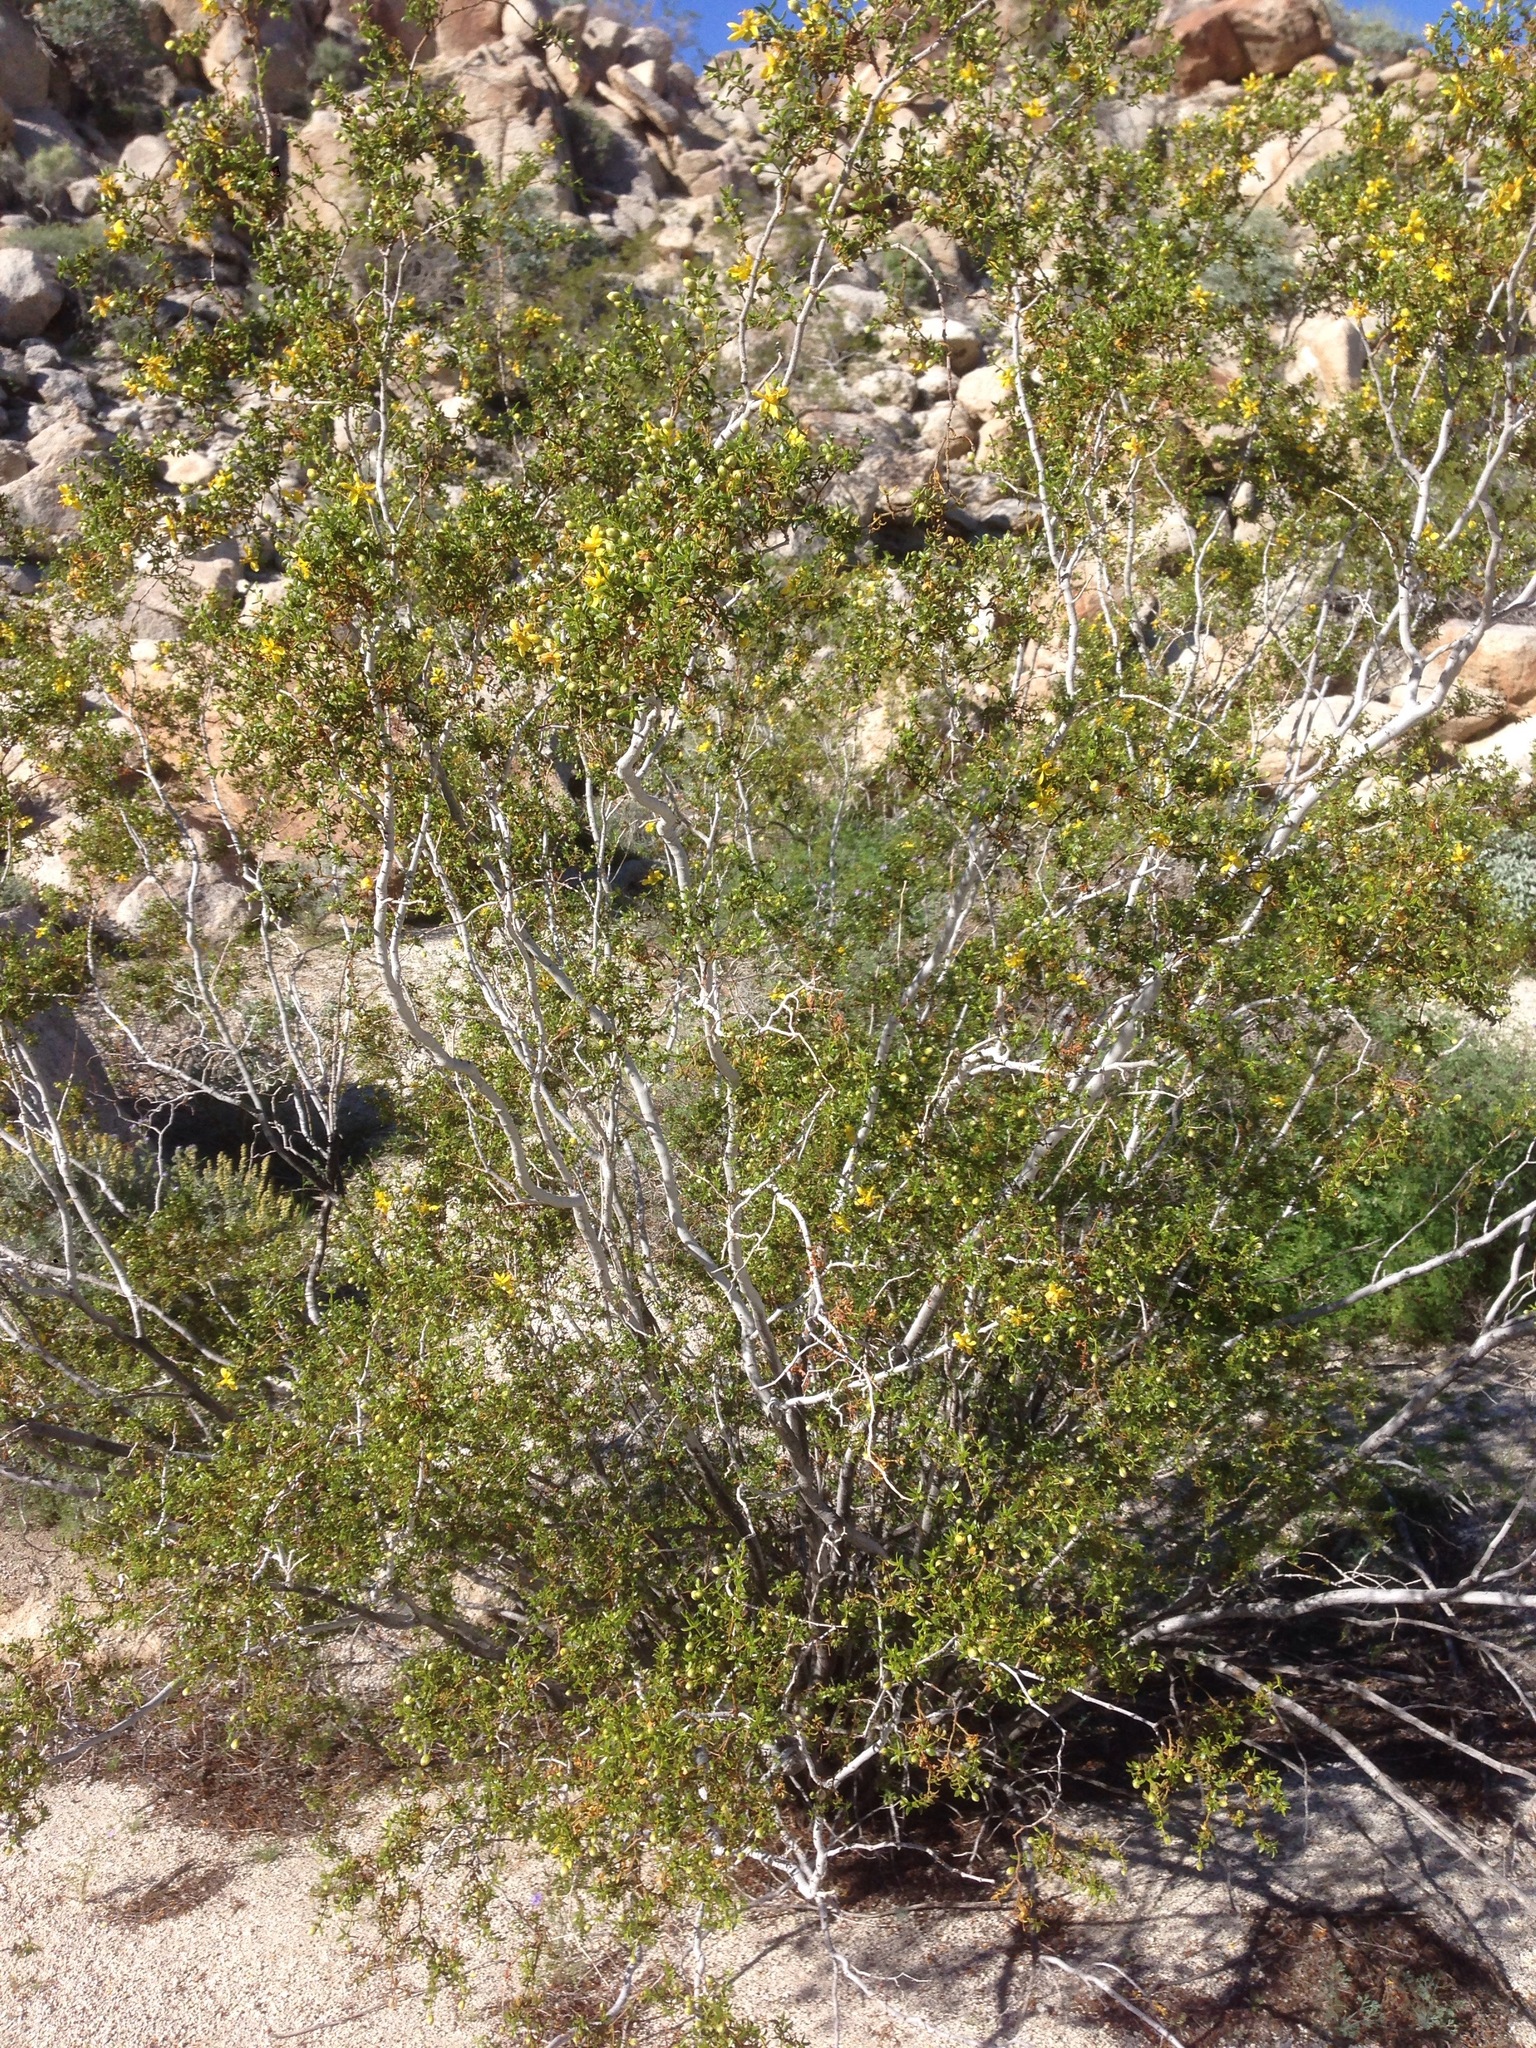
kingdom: Plantae
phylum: Tracheophyta
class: Magnoliopsida
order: Zygophyllales
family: Zygophyllaceae
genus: Larrea
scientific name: Larrea tridentata
